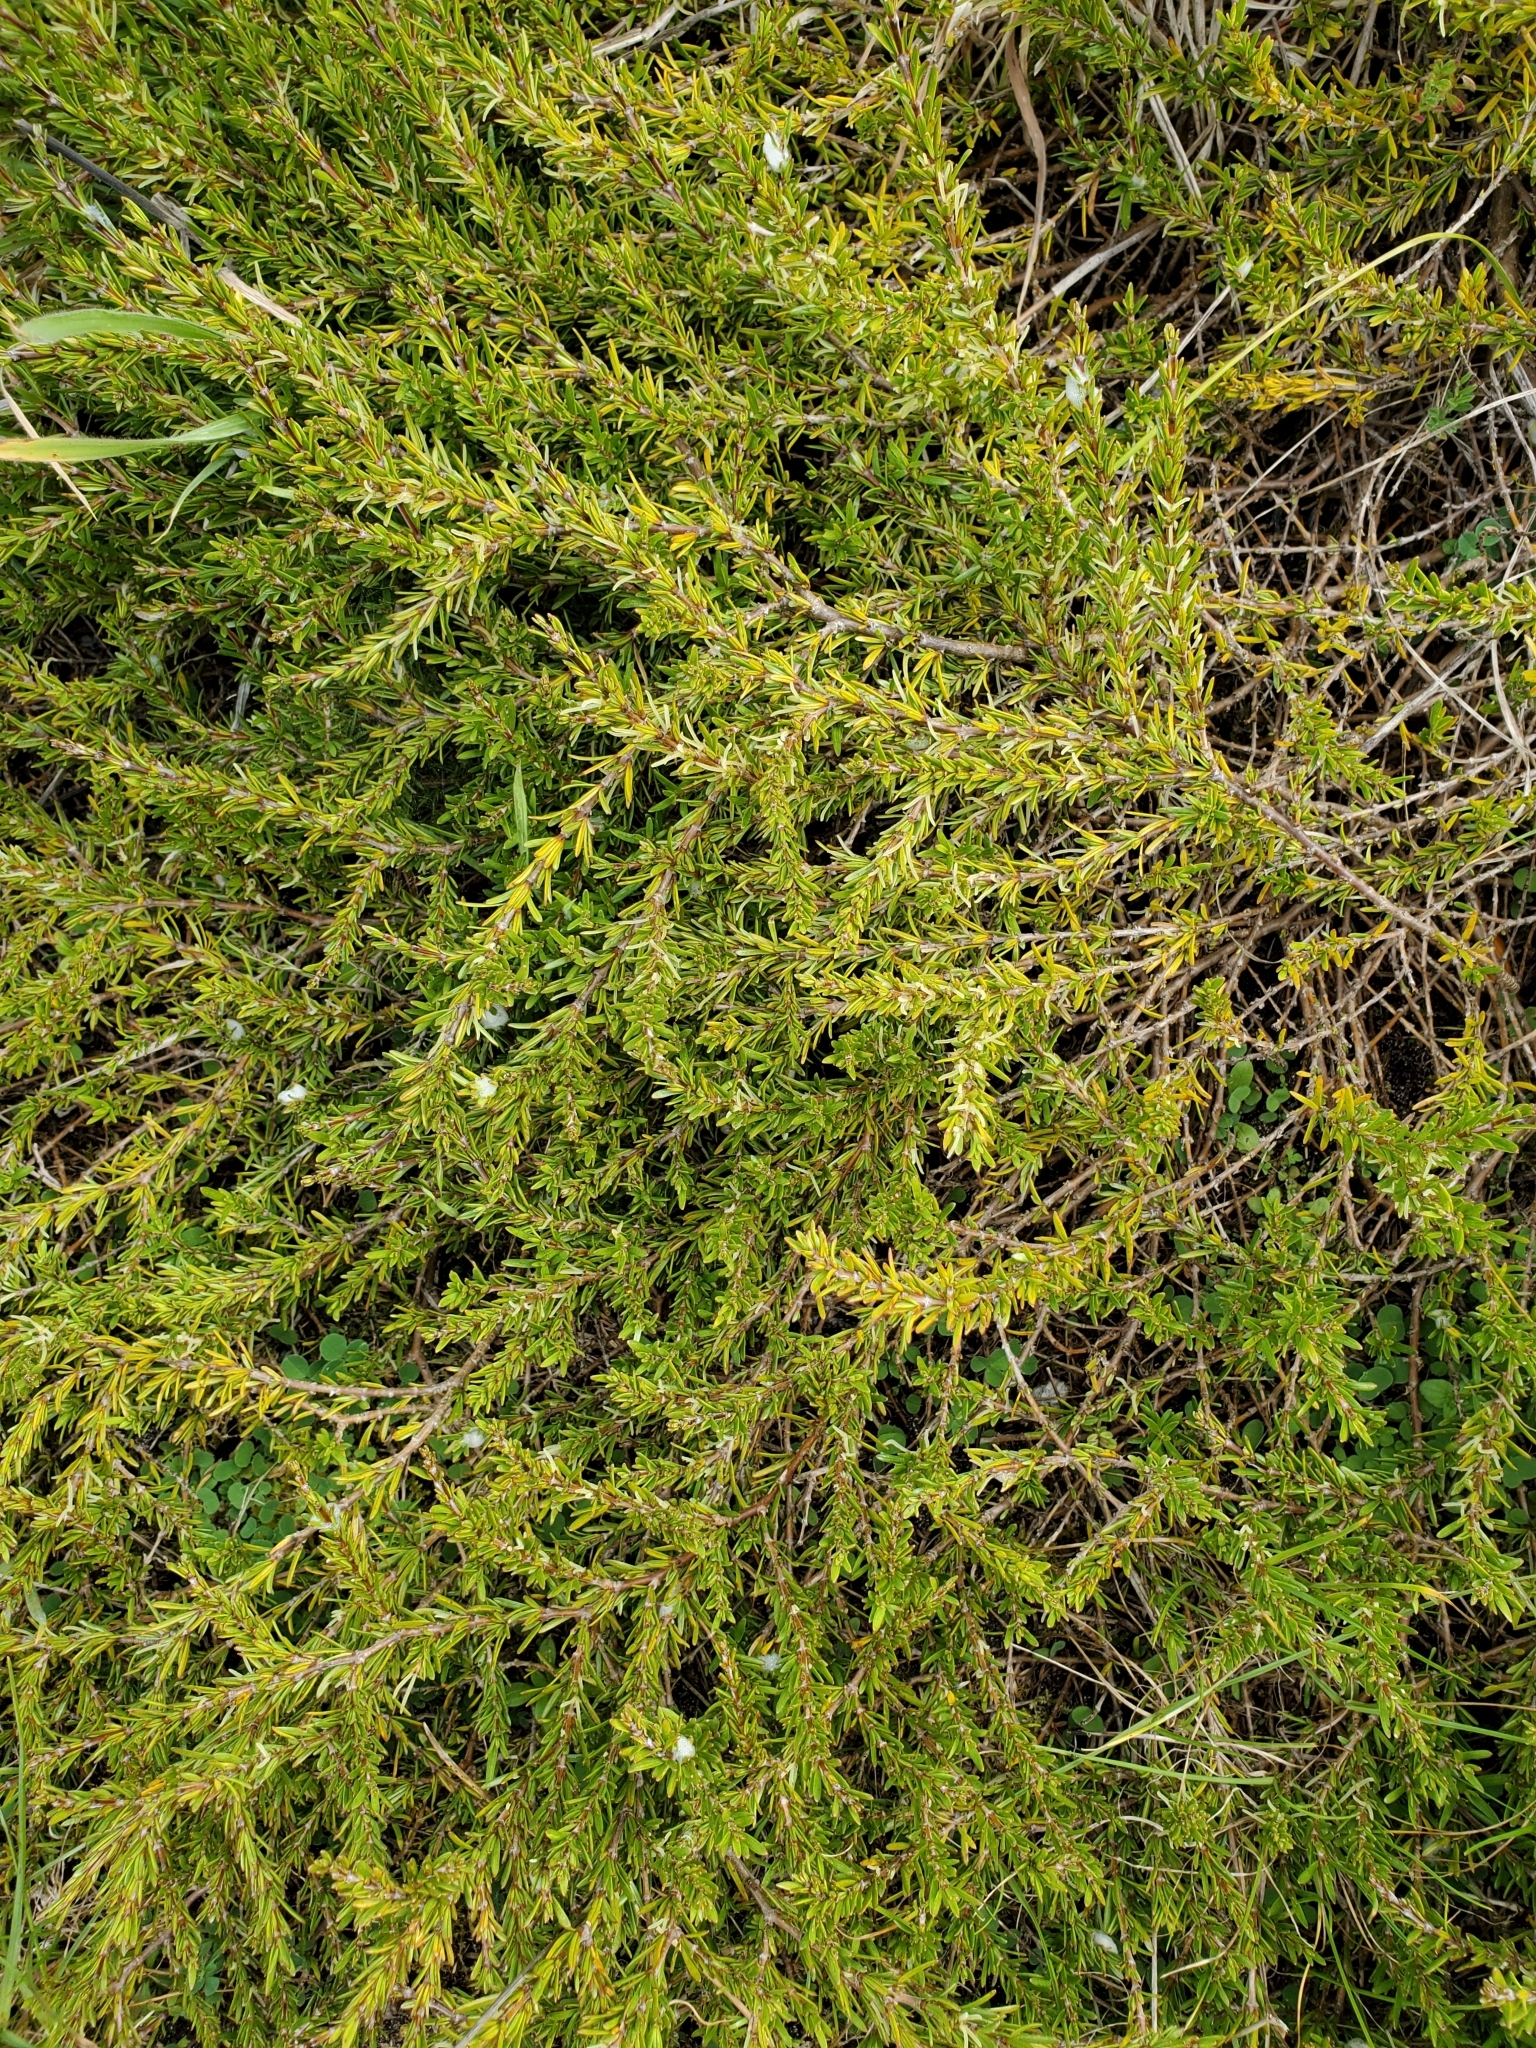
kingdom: Plantae
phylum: Tracheophyta
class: Magnoliopsida
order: Gentianales
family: Rubiaceae
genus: Coprosma
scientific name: Coprosma acerosa
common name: Sand coprosma
